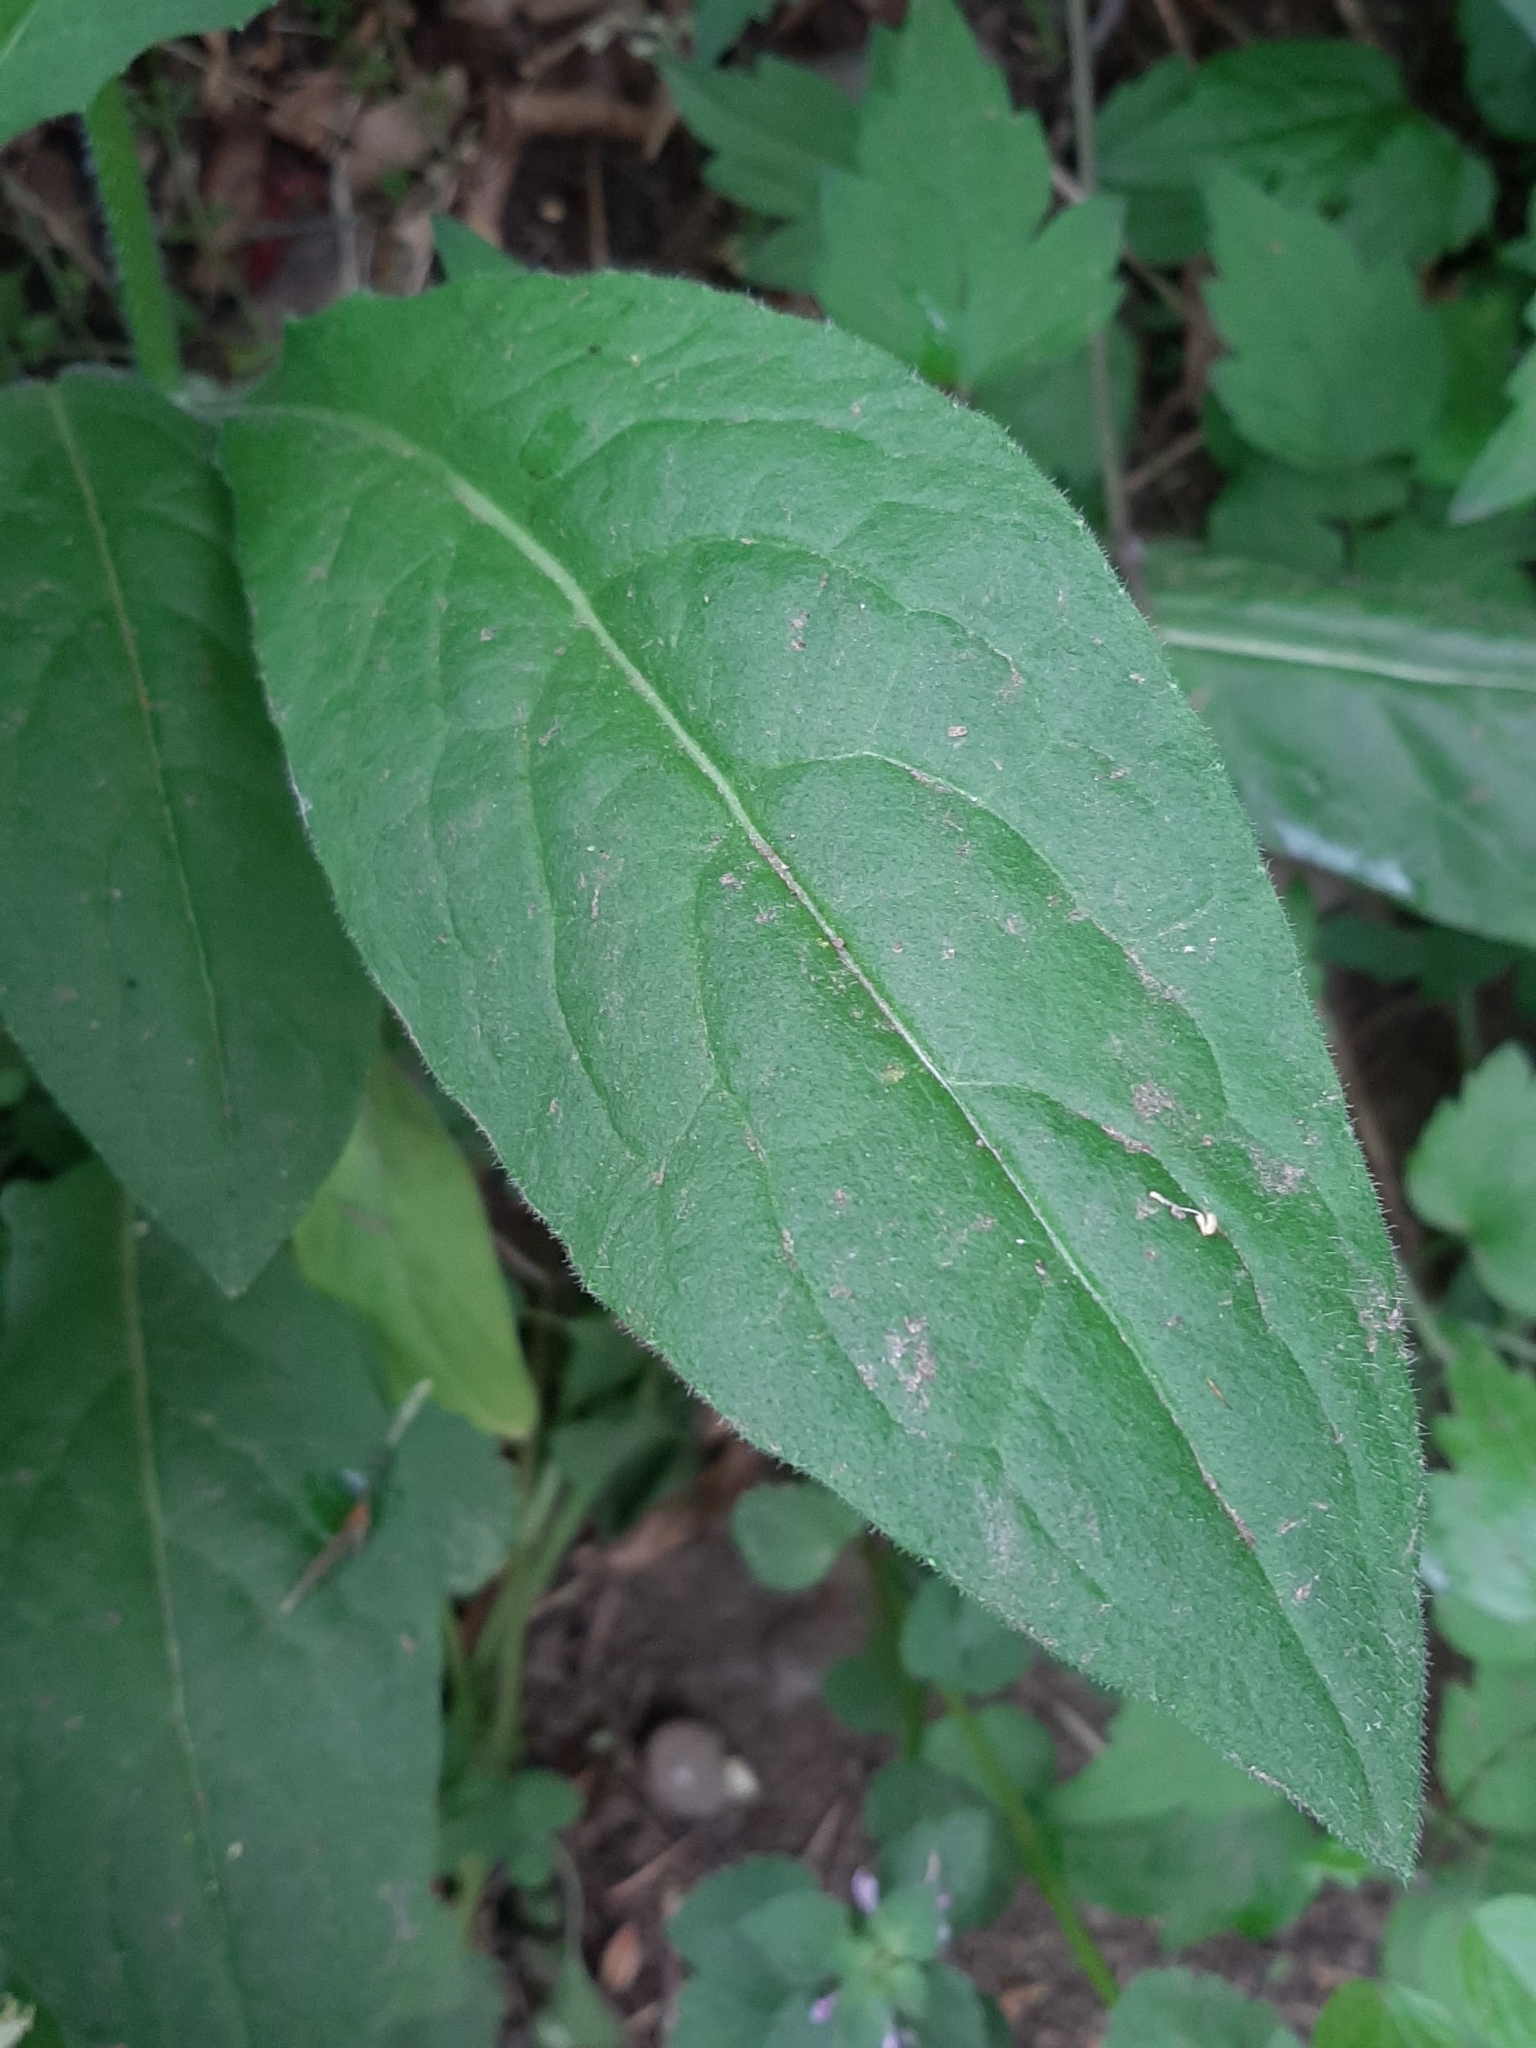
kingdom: Plantae
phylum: Tracheophyta
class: Magnoliopsida
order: Boraginales
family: Boraginaceae
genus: Symphytum
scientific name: Symphytum officinale
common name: Common comfrey
